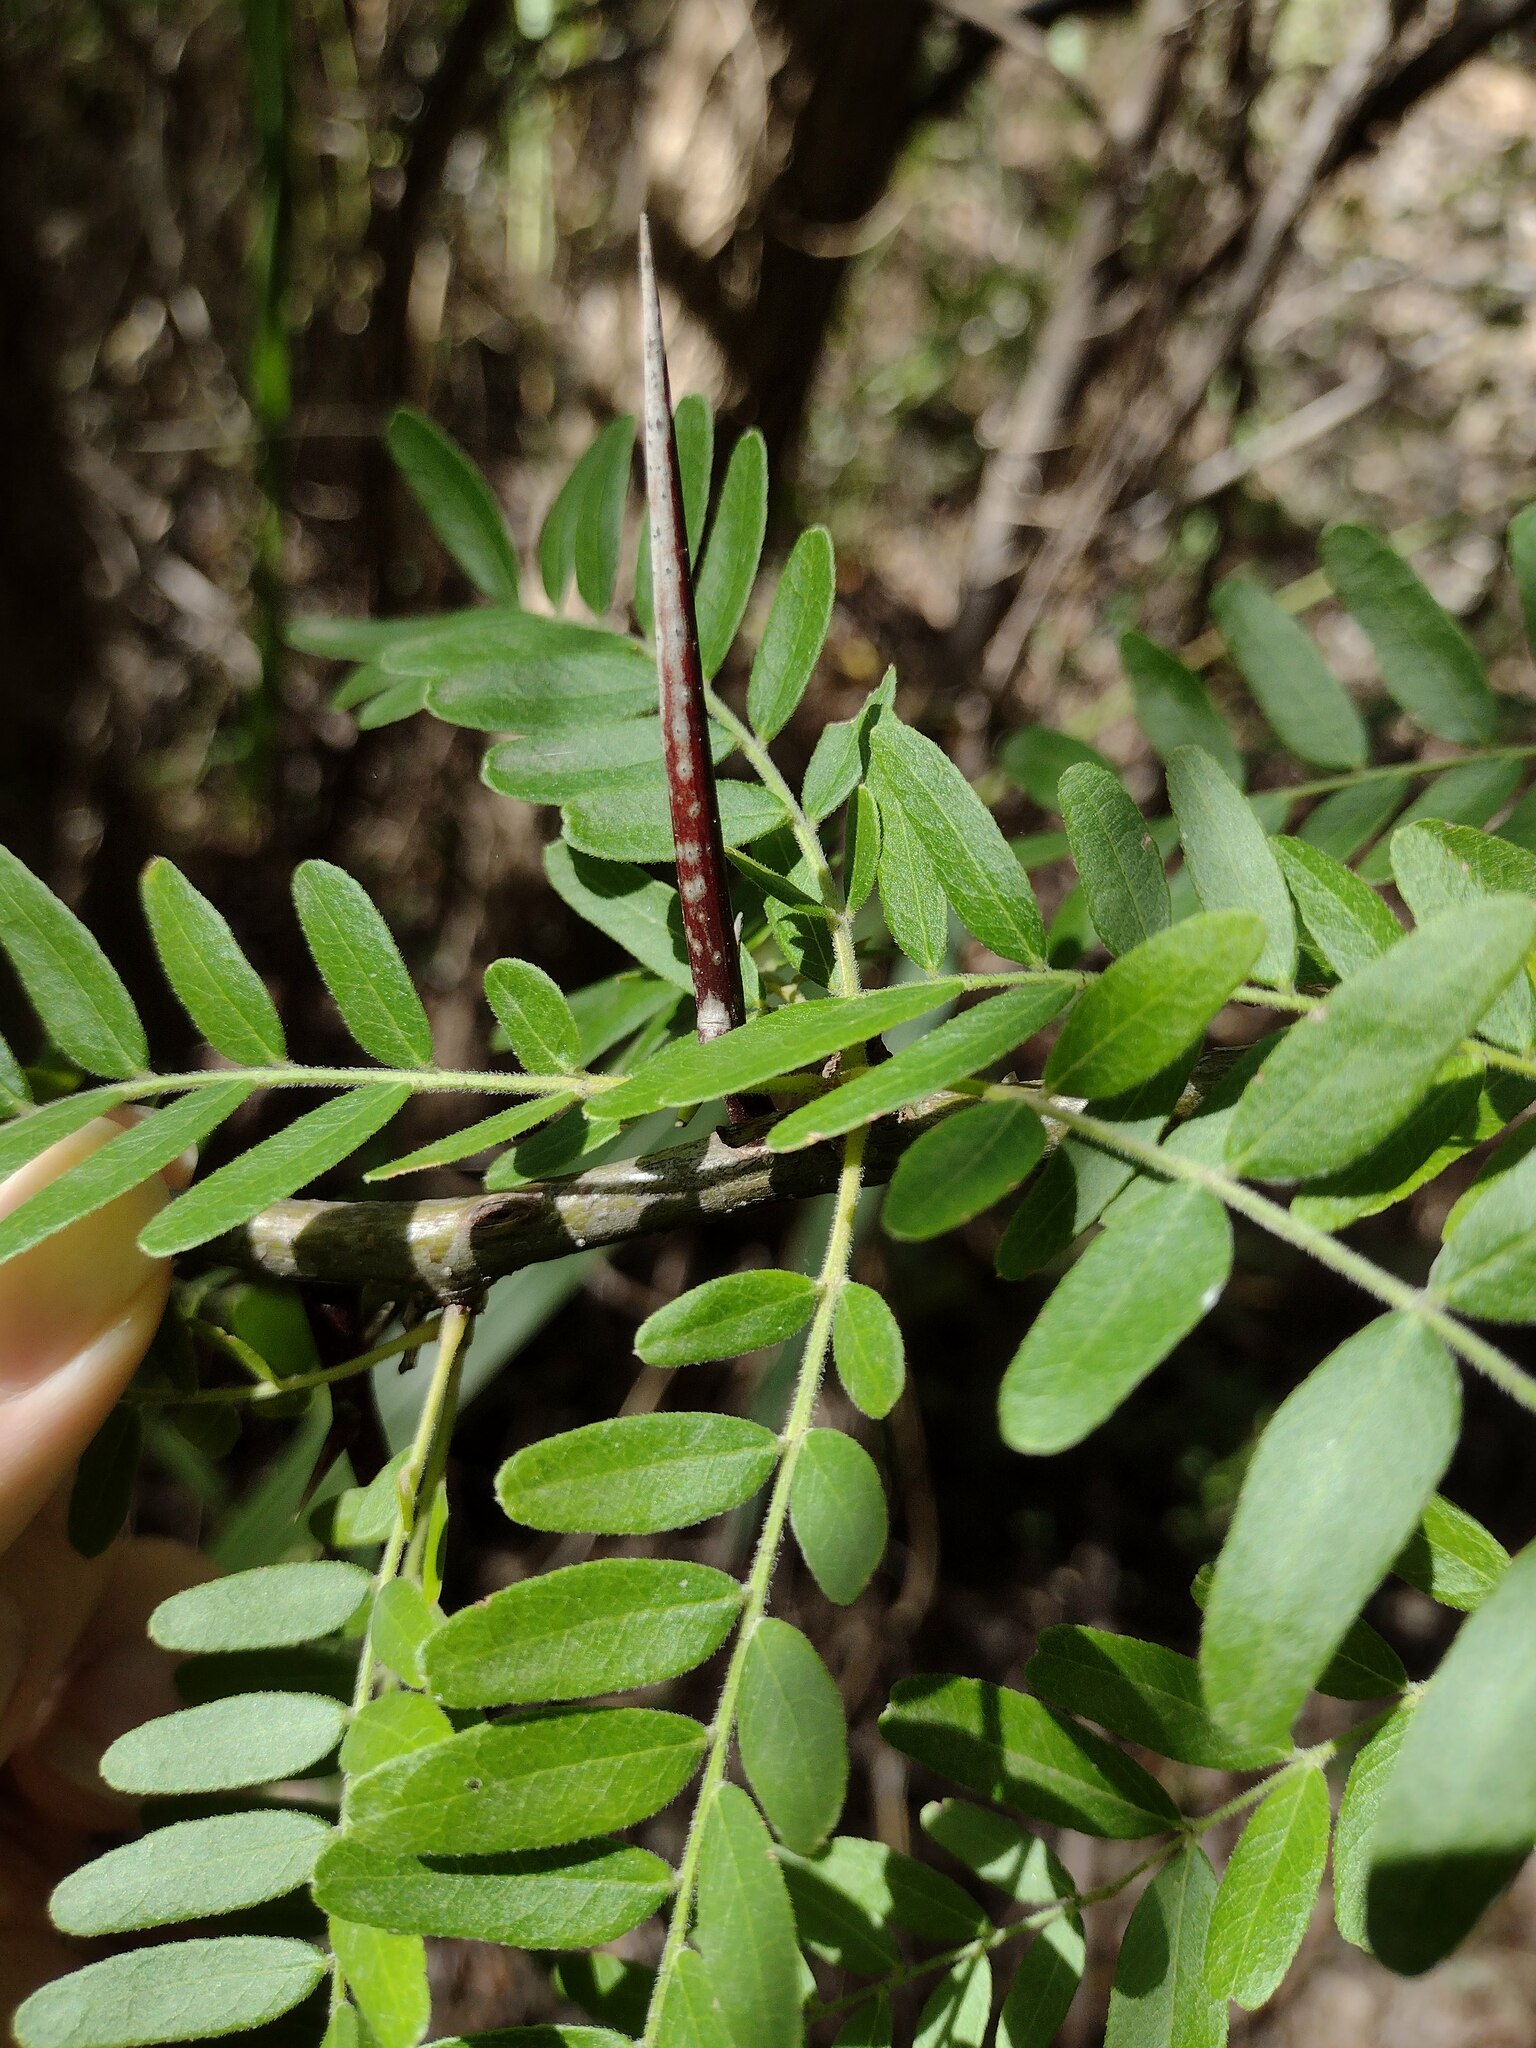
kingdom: Plantae
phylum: Tracheophyta
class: Magnoliopsida
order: Fabales
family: Fabaceae
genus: Gleditsia
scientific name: Gleditsia triacanthos
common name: Common honeylocust
